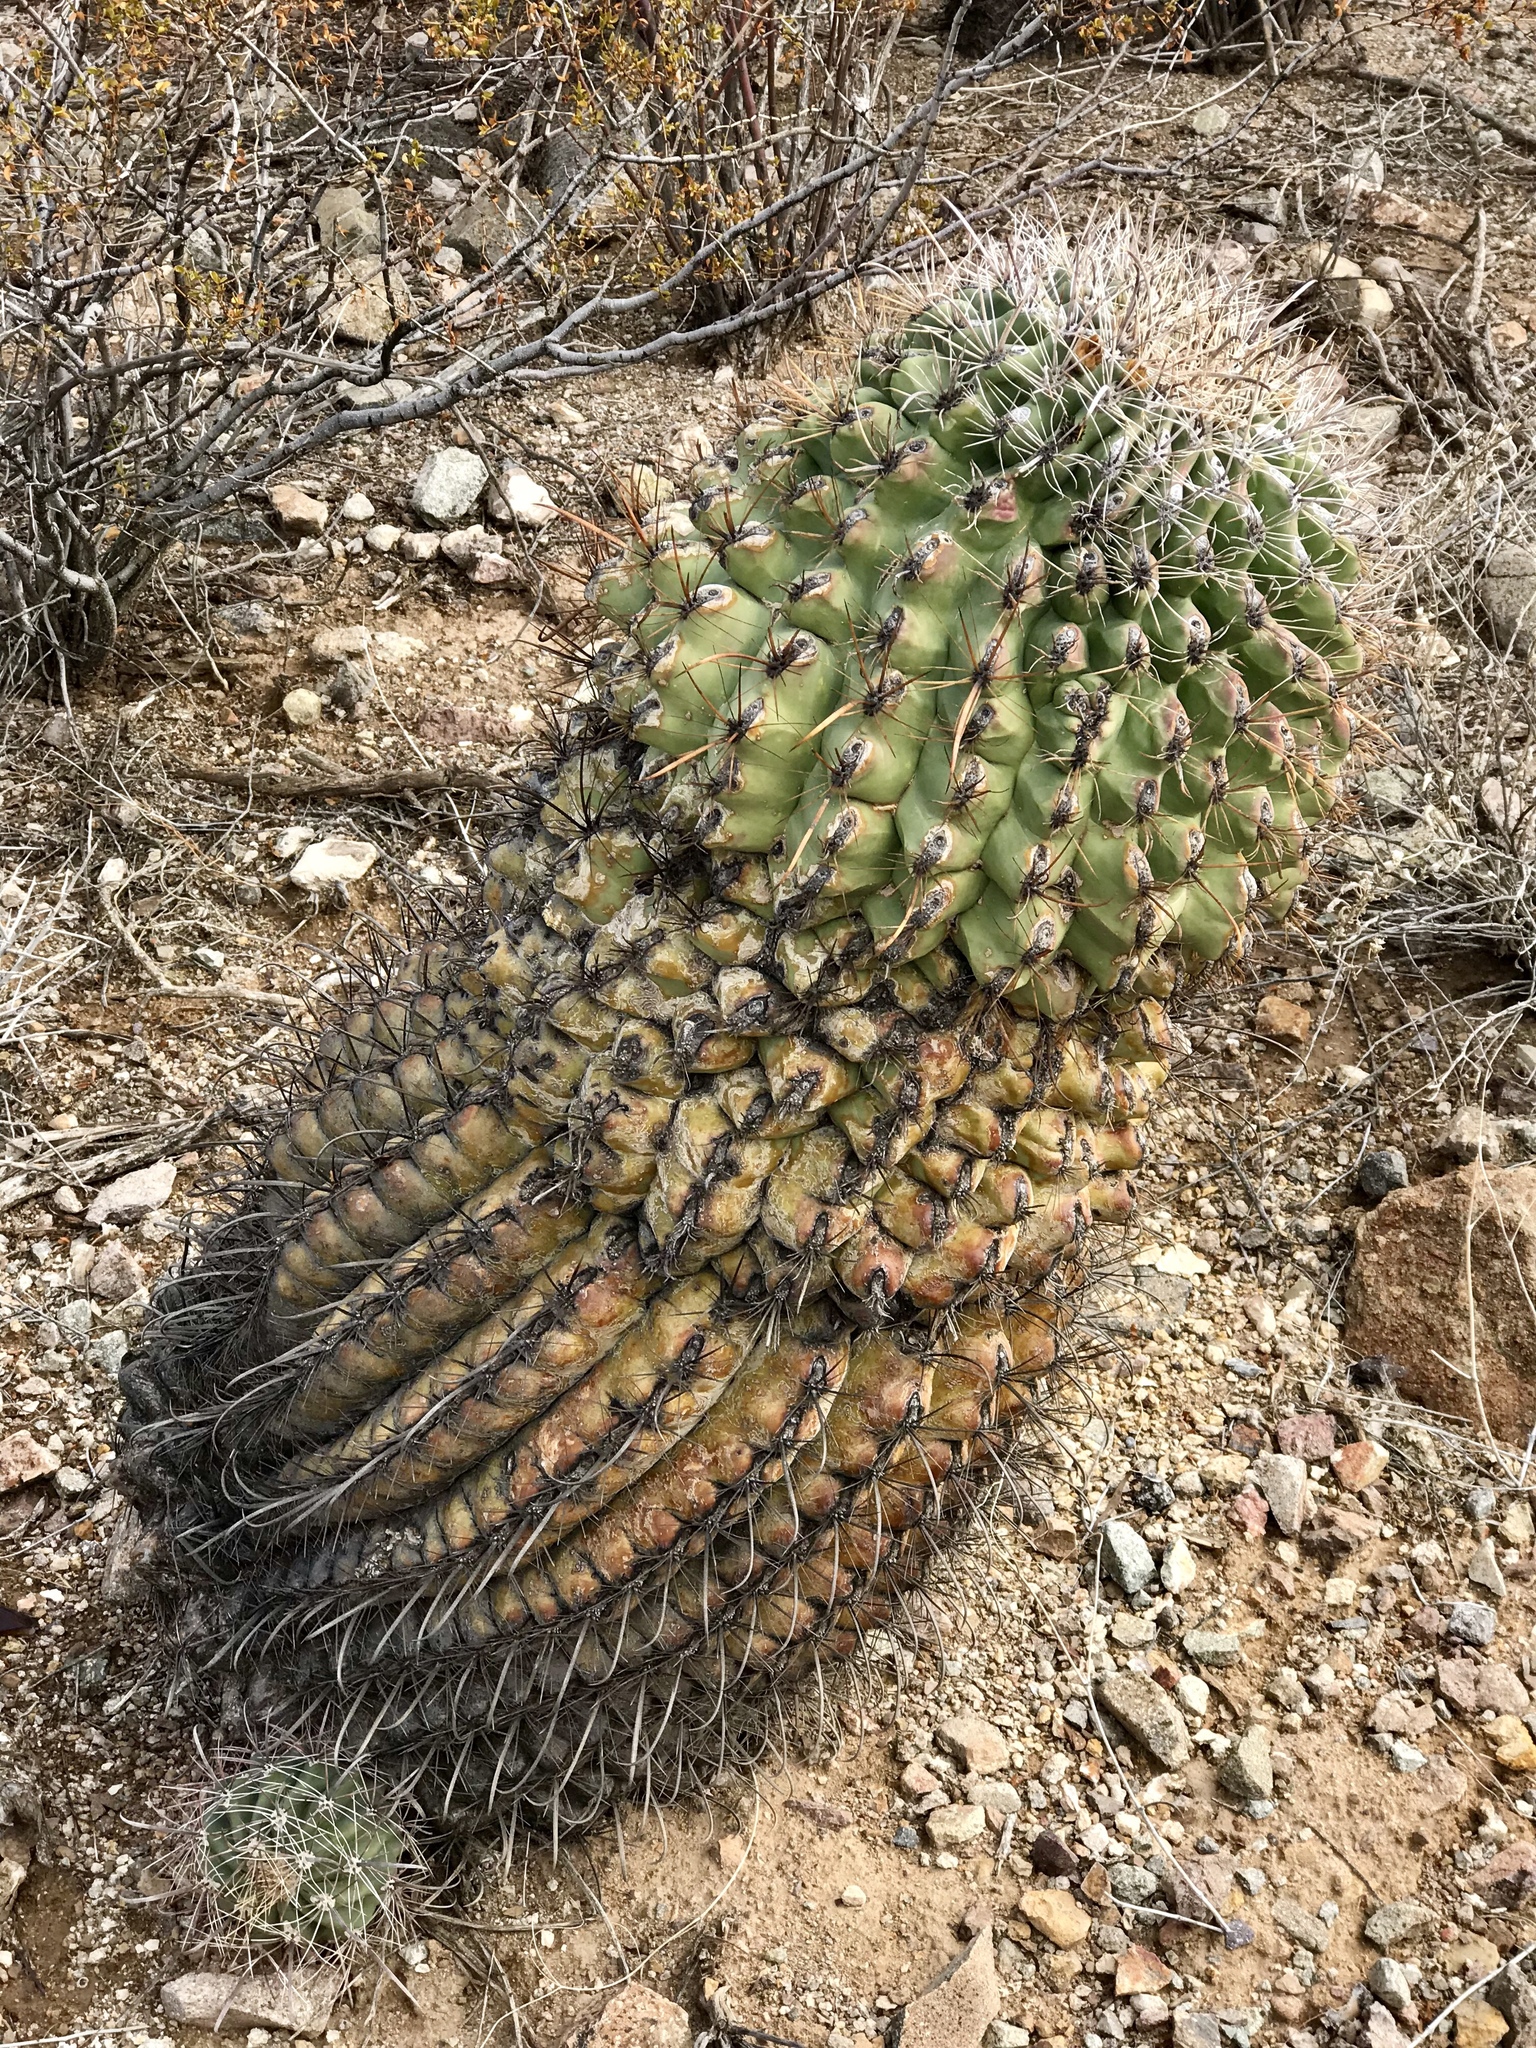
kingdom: Plantae
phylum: Tracheophyta
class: Magnoliopsida
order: Caryophyllales
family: Cactaceae
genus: Ferocactus
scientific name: Ferocactus wislizeni
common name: Candy barrel cactus
